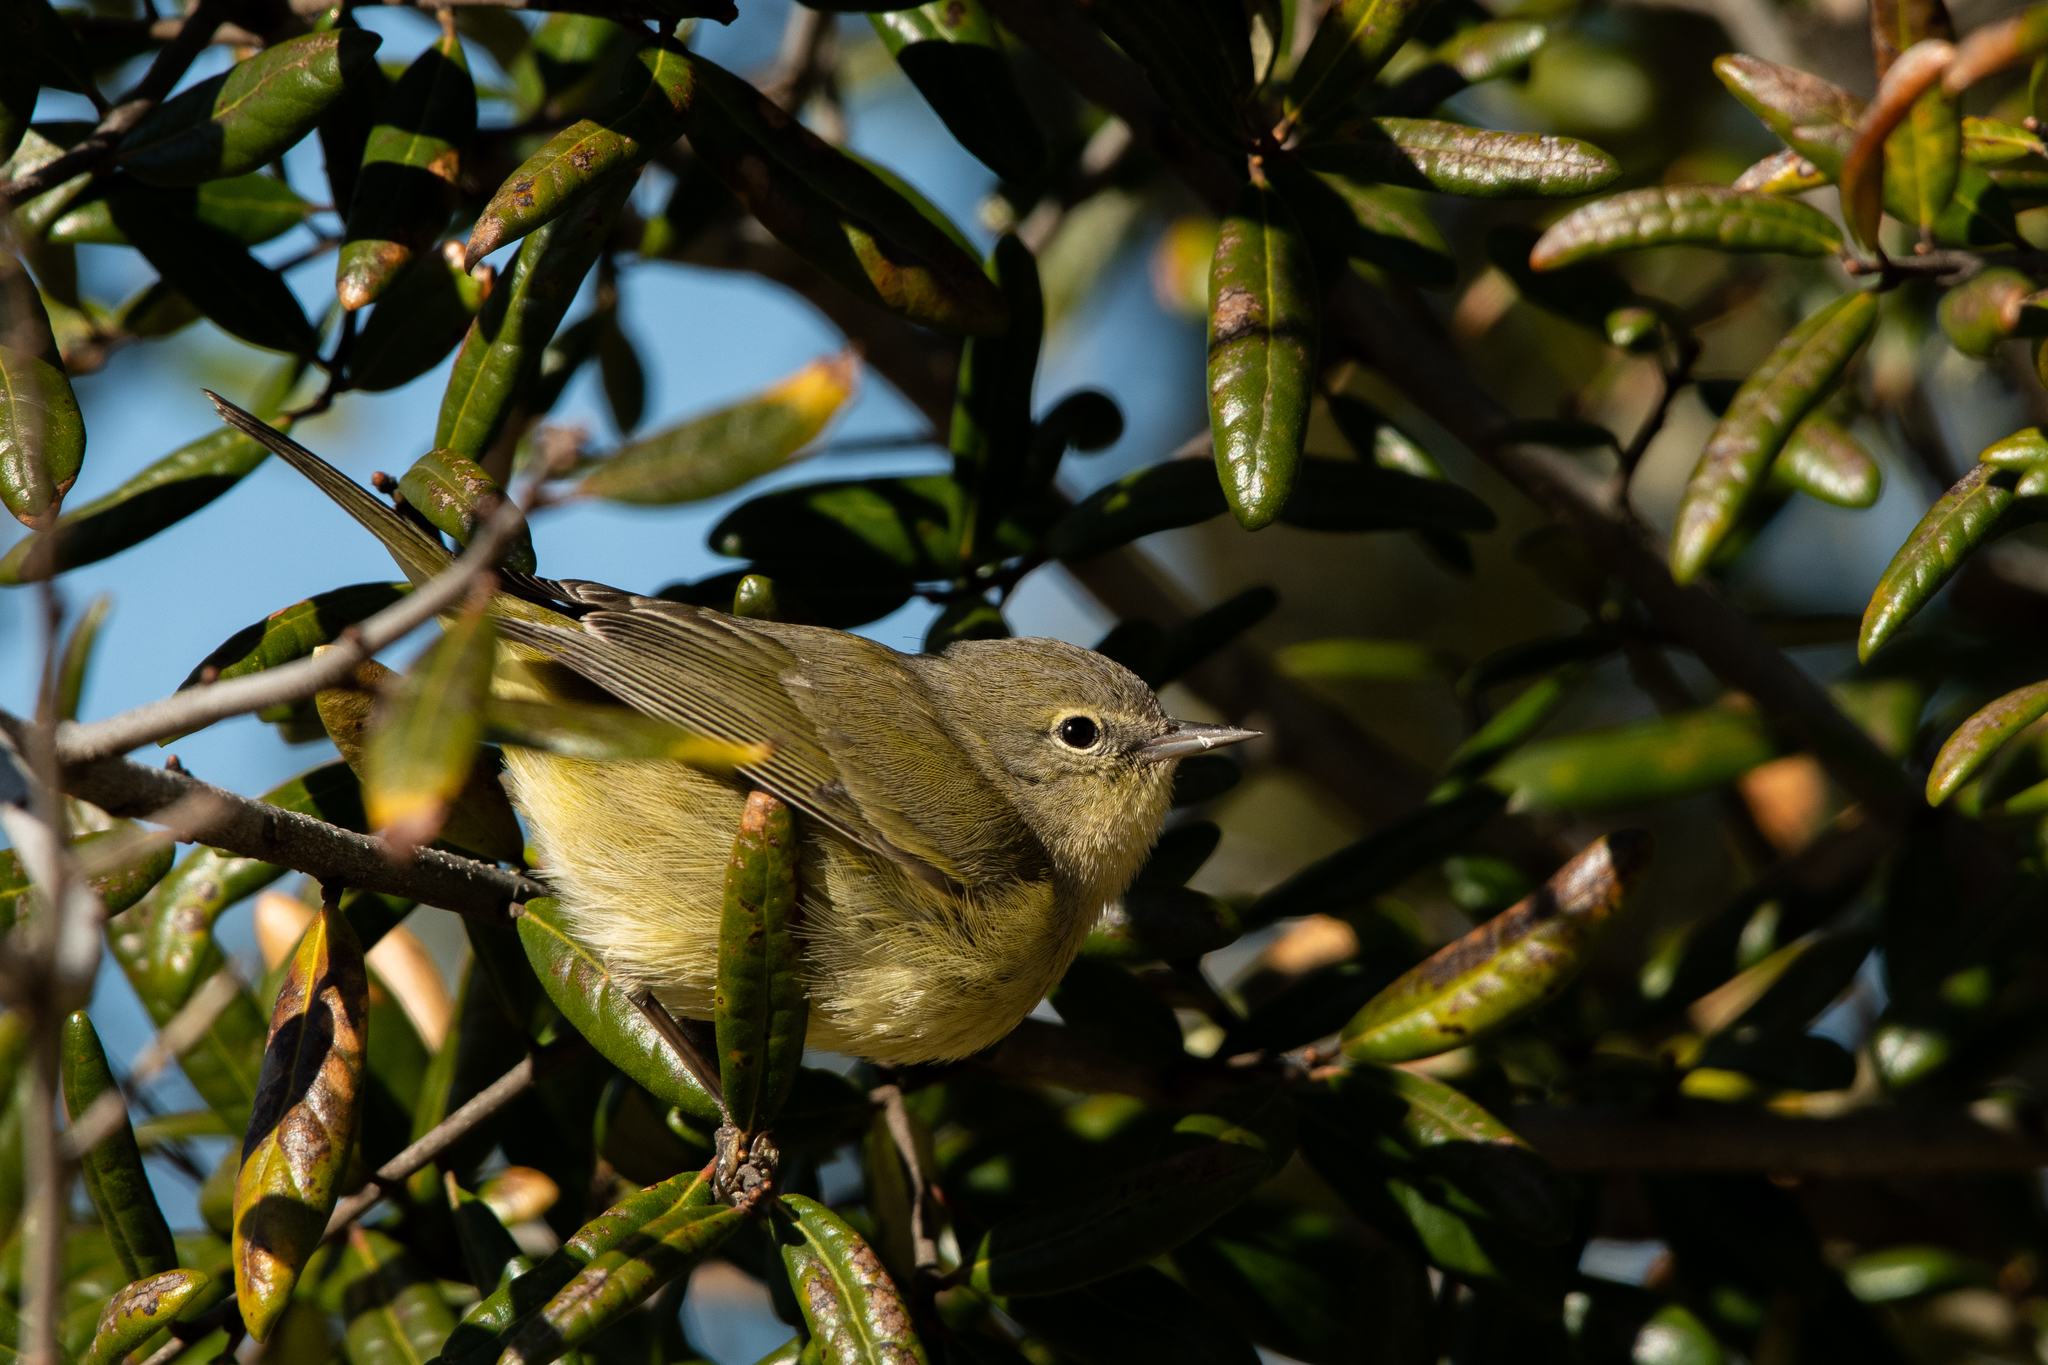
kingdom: Animalia
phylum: Chordata
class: Aves
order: Passeriformes
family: Parulidae
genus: Leiothlypis
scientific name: Leiothlypis celata
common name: Orange-crowned warbler
